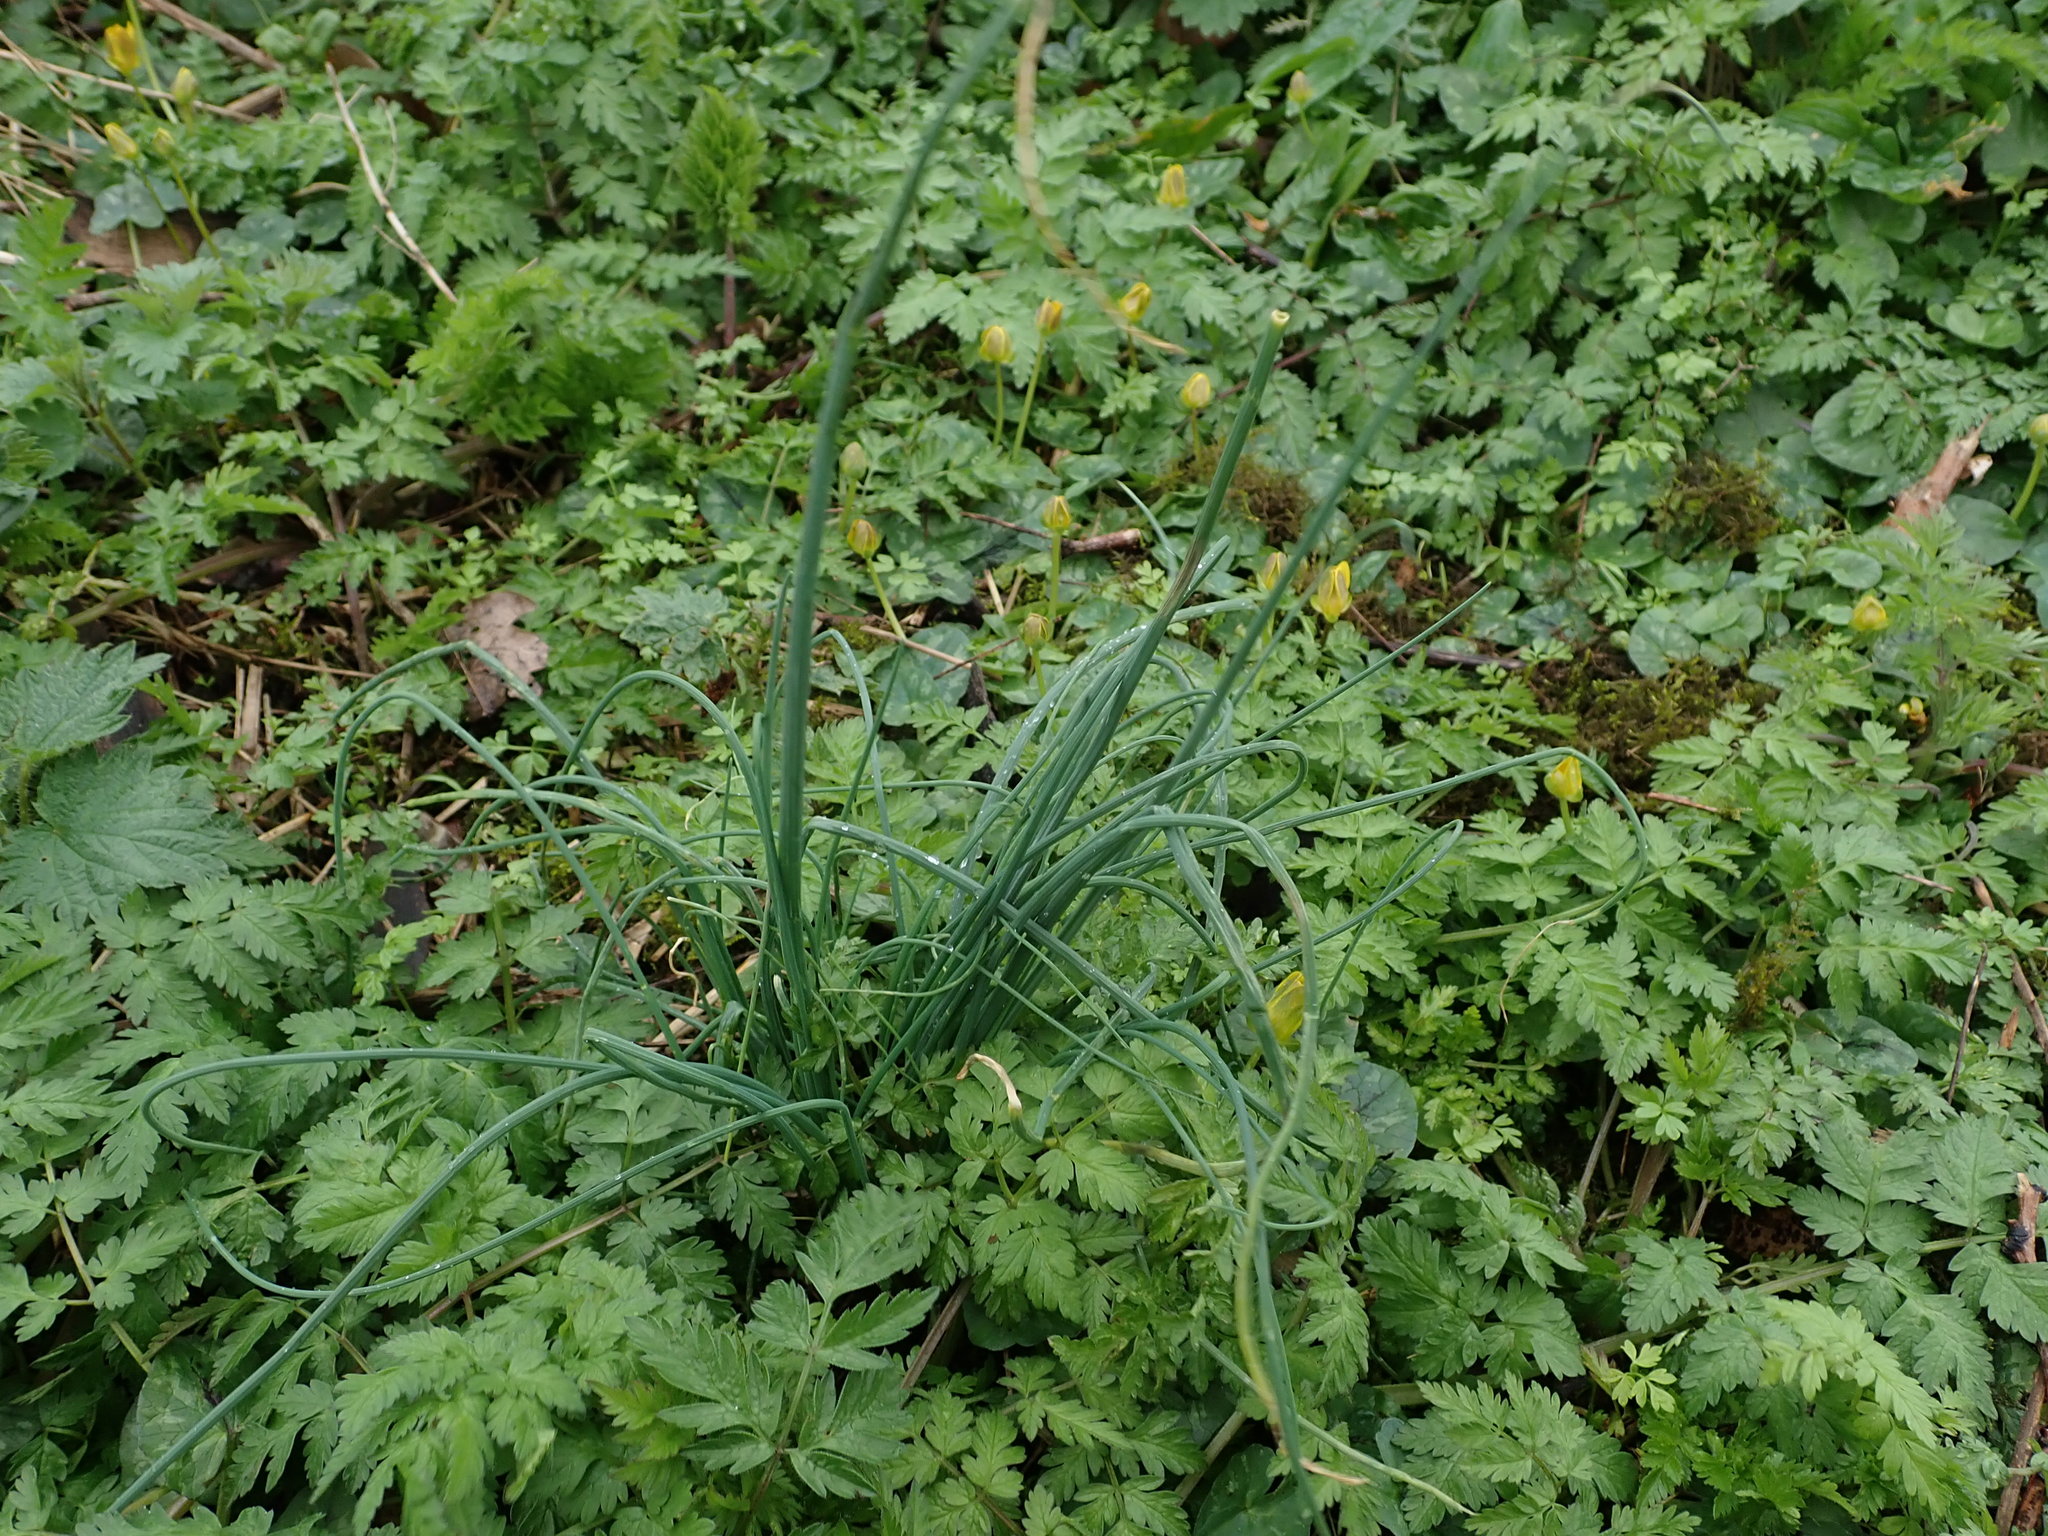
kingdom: Plantae
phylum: Tracheophyta
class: Liliopsida
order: Asparagales
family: Amaryllidaceae
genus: Allium
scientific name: Allium vineale
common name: Crow garlic
